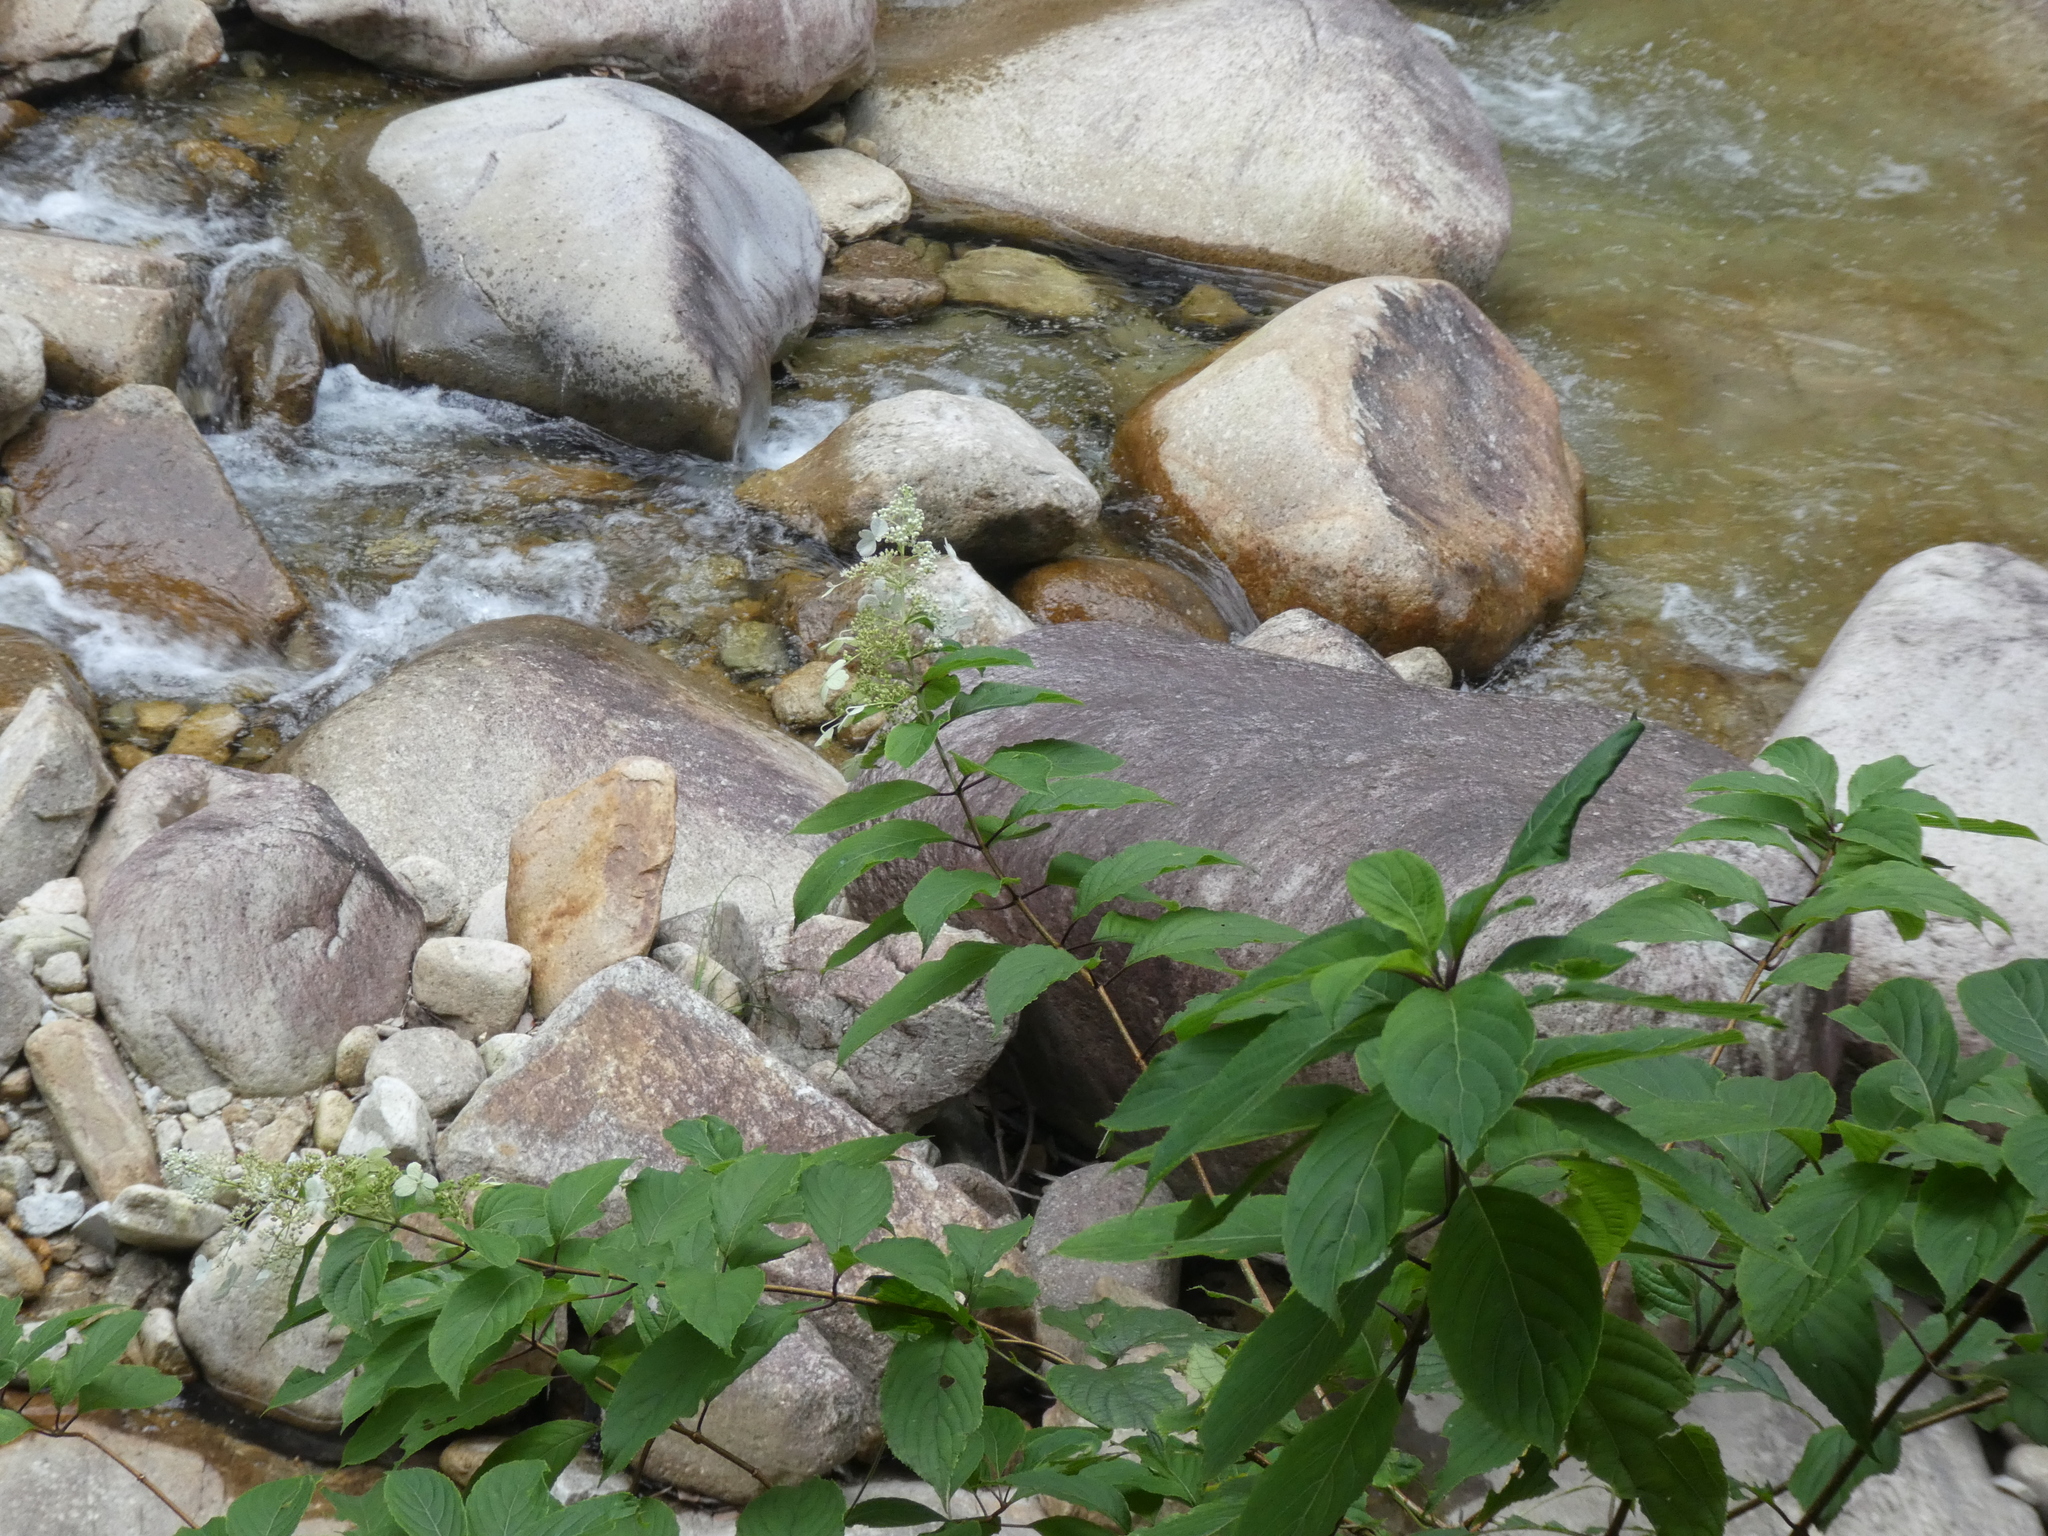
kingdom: Plantae
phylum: Tracheophyta
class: Magnoliopsida
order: Cornales
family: Hydrangeaceae
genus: Hydrangea
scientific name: Hydrangea paniculata
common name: Panicled hydrangea
